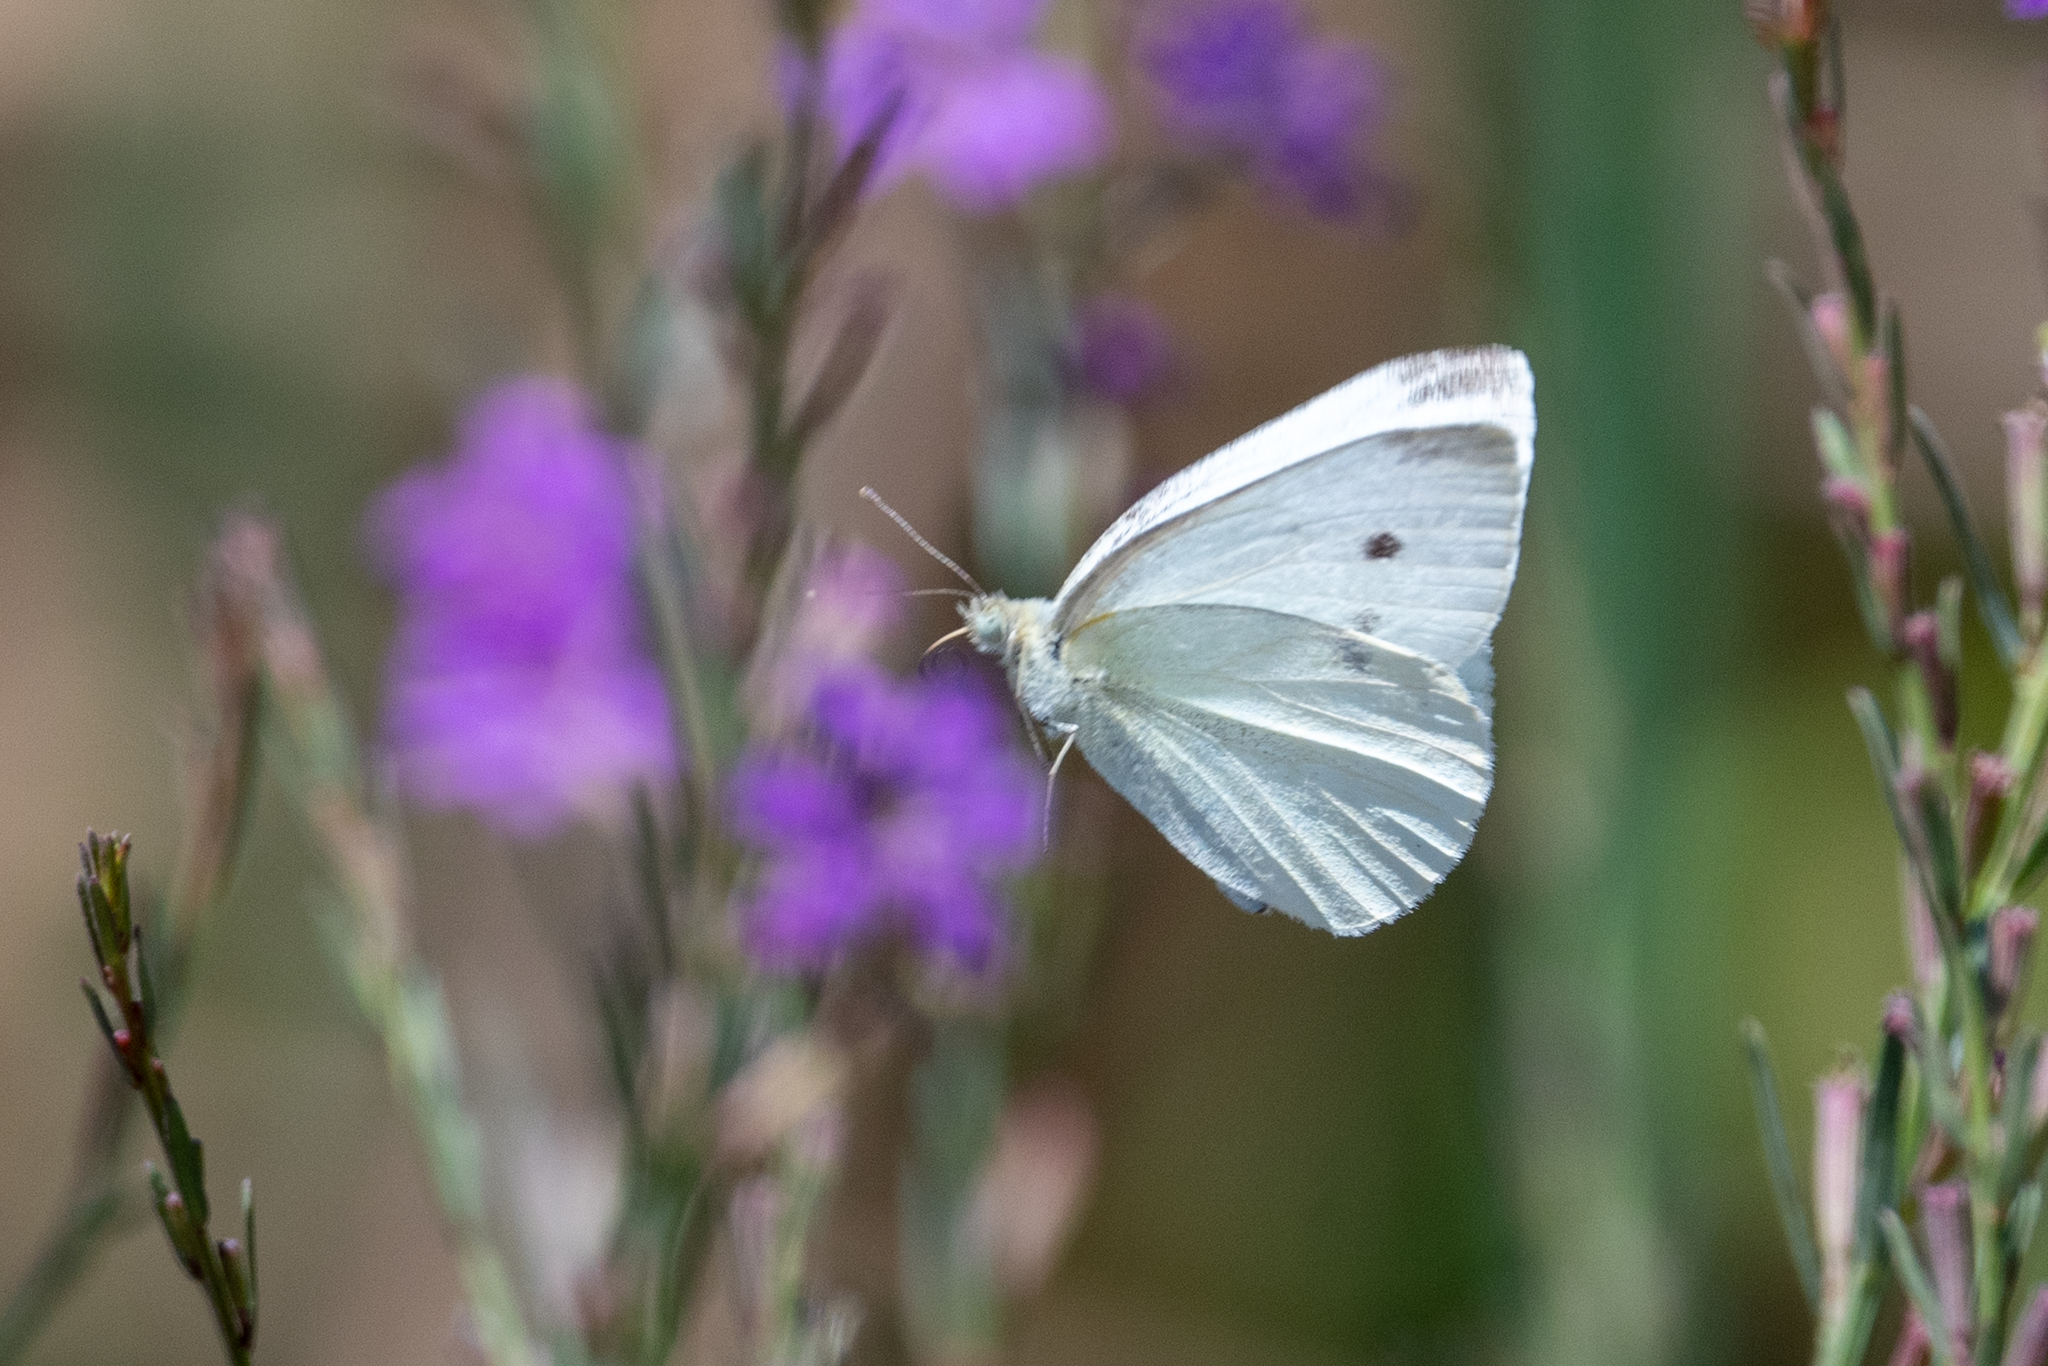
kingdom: Animalia
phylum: Arthropoda
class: Insecta
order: Lepidoptera
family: Pieridae
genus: Pieris
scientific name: Pieris rapae
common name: Small white
